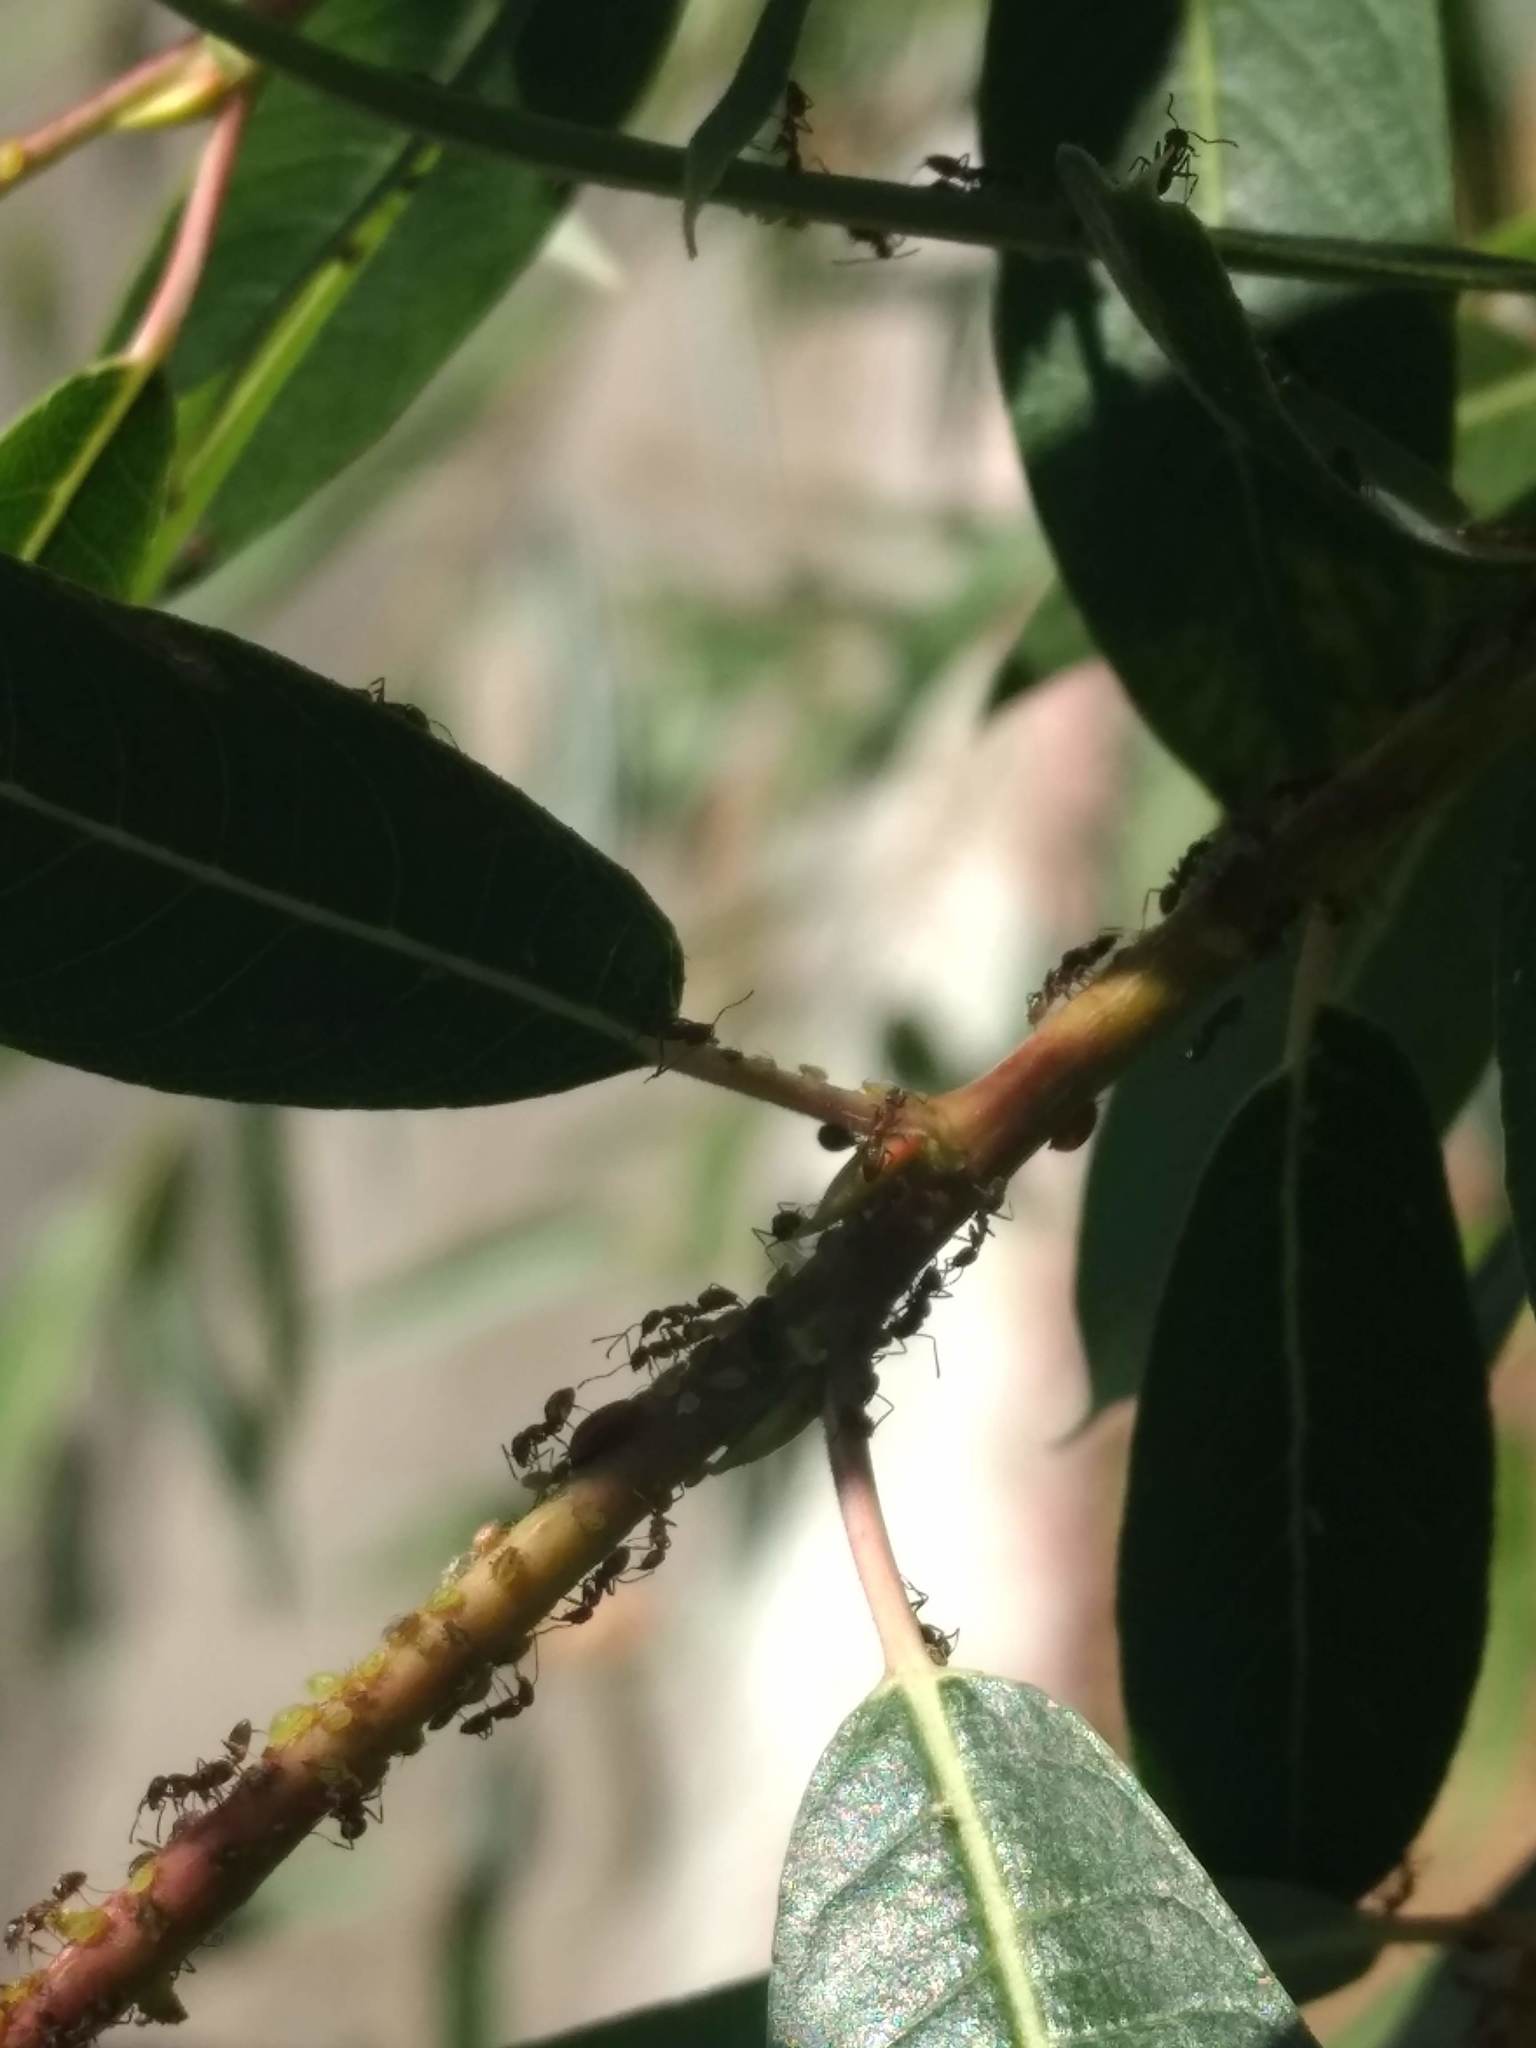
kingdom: Animalia
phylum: Arthropoda
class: Insecta
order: Hymenoptera
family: Formicidae
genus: Linepithema
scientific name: Linepithema humile
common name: Argentine ant
